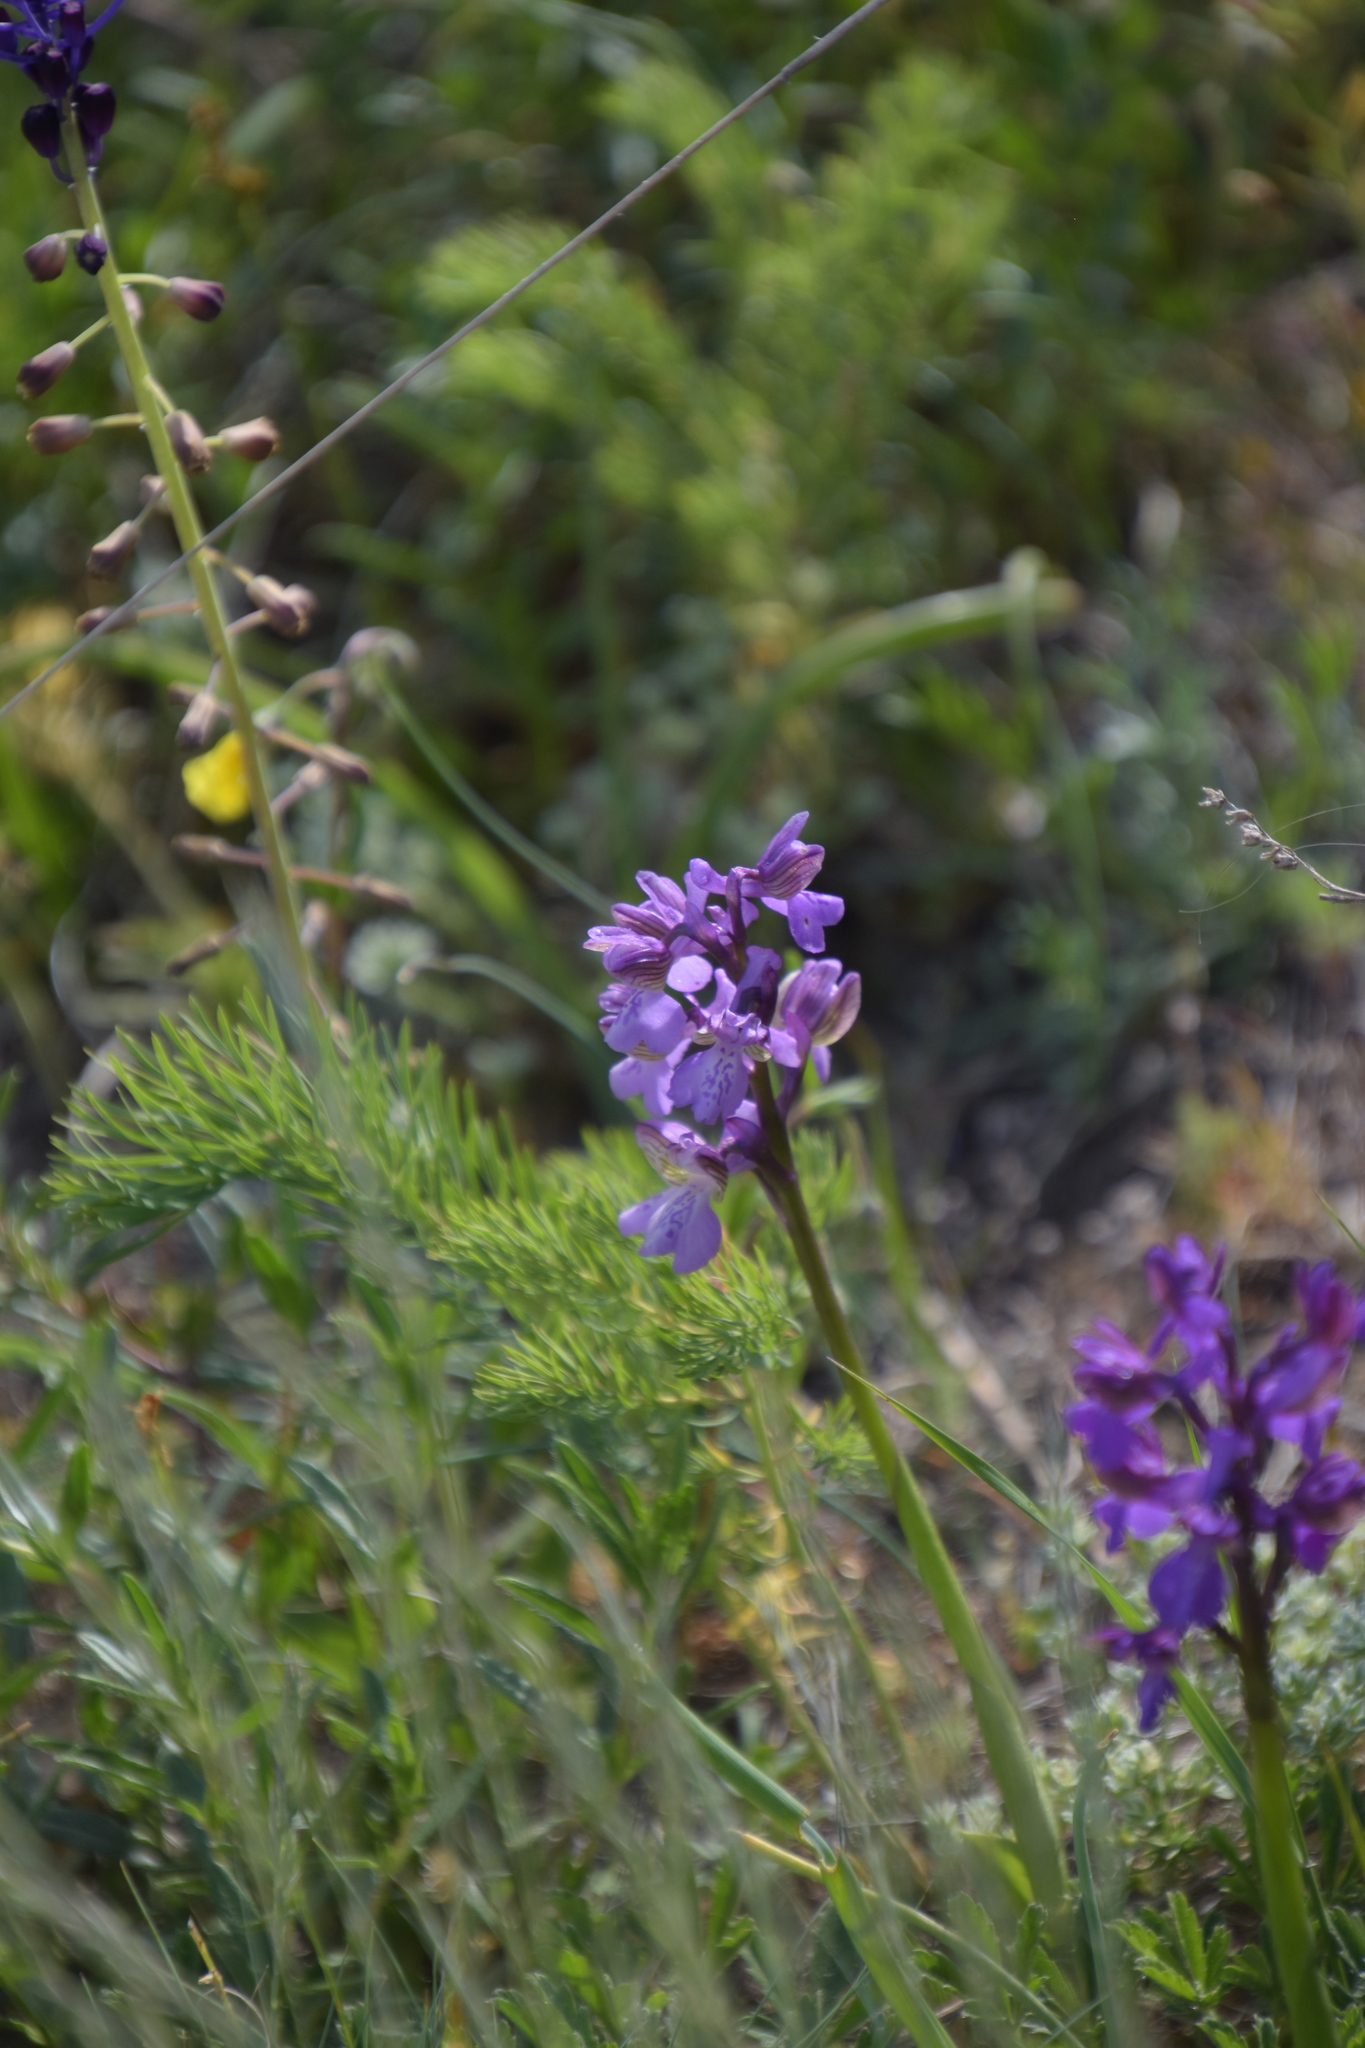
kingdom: Plantae
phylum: Tracheophyta
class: Liliopsida
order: Asparagales
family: Orchidaceae
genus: Anacamptis
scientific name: Anacamptis morio
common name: Green-winged orchid
